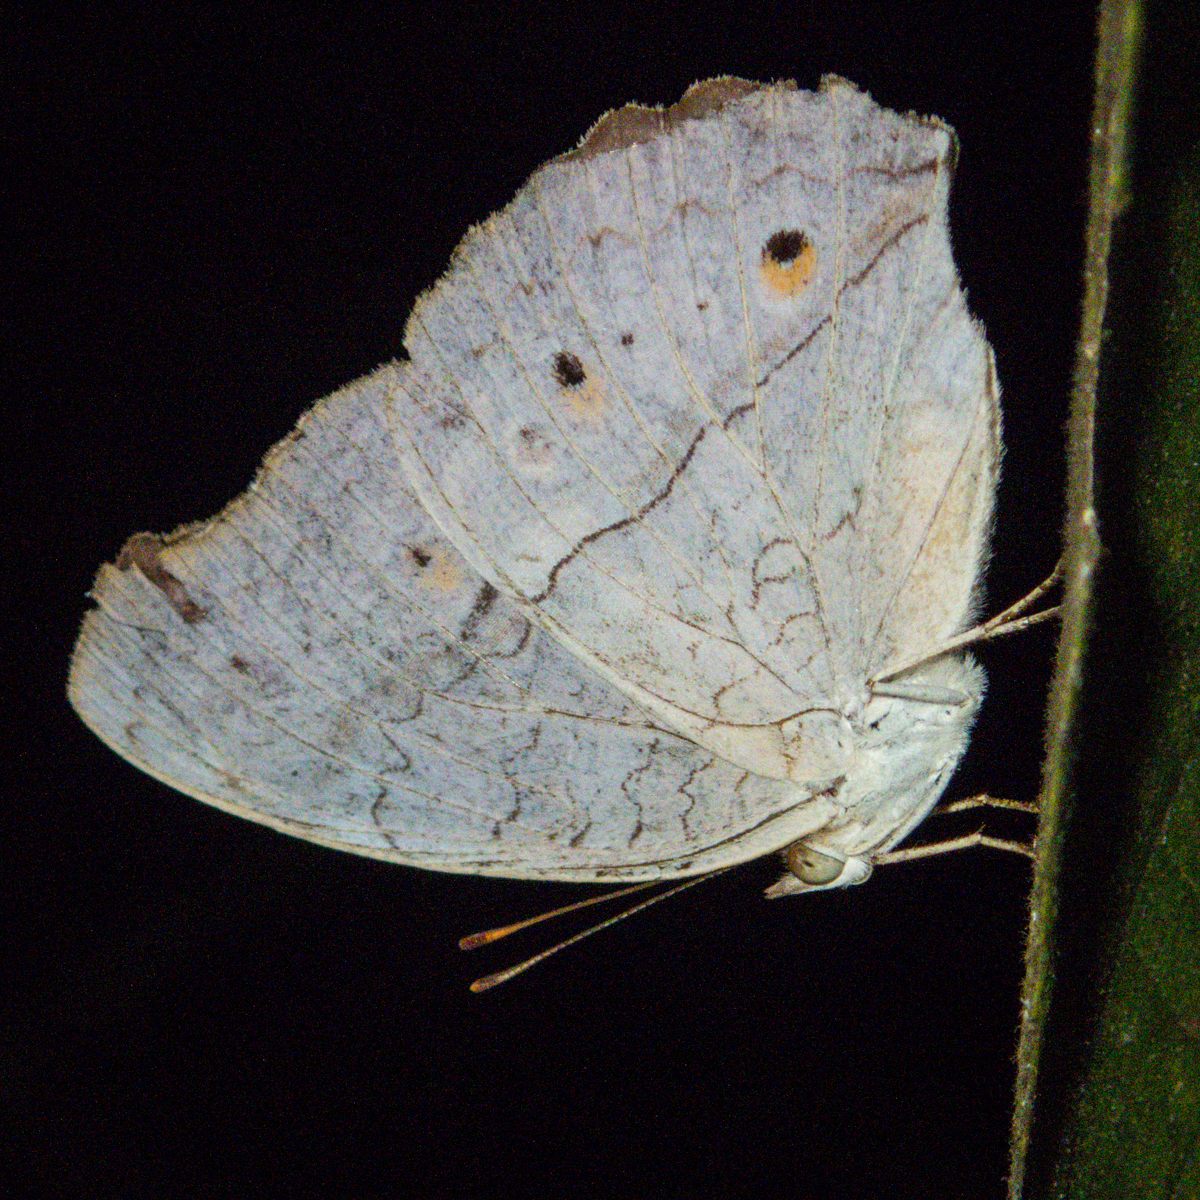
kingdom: Animalia
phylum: Arthropoda
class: Insecta
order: Lepidoptera
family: Nymphalidae
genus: Junonia
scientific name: Junonia atlites
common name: Grey pansy
